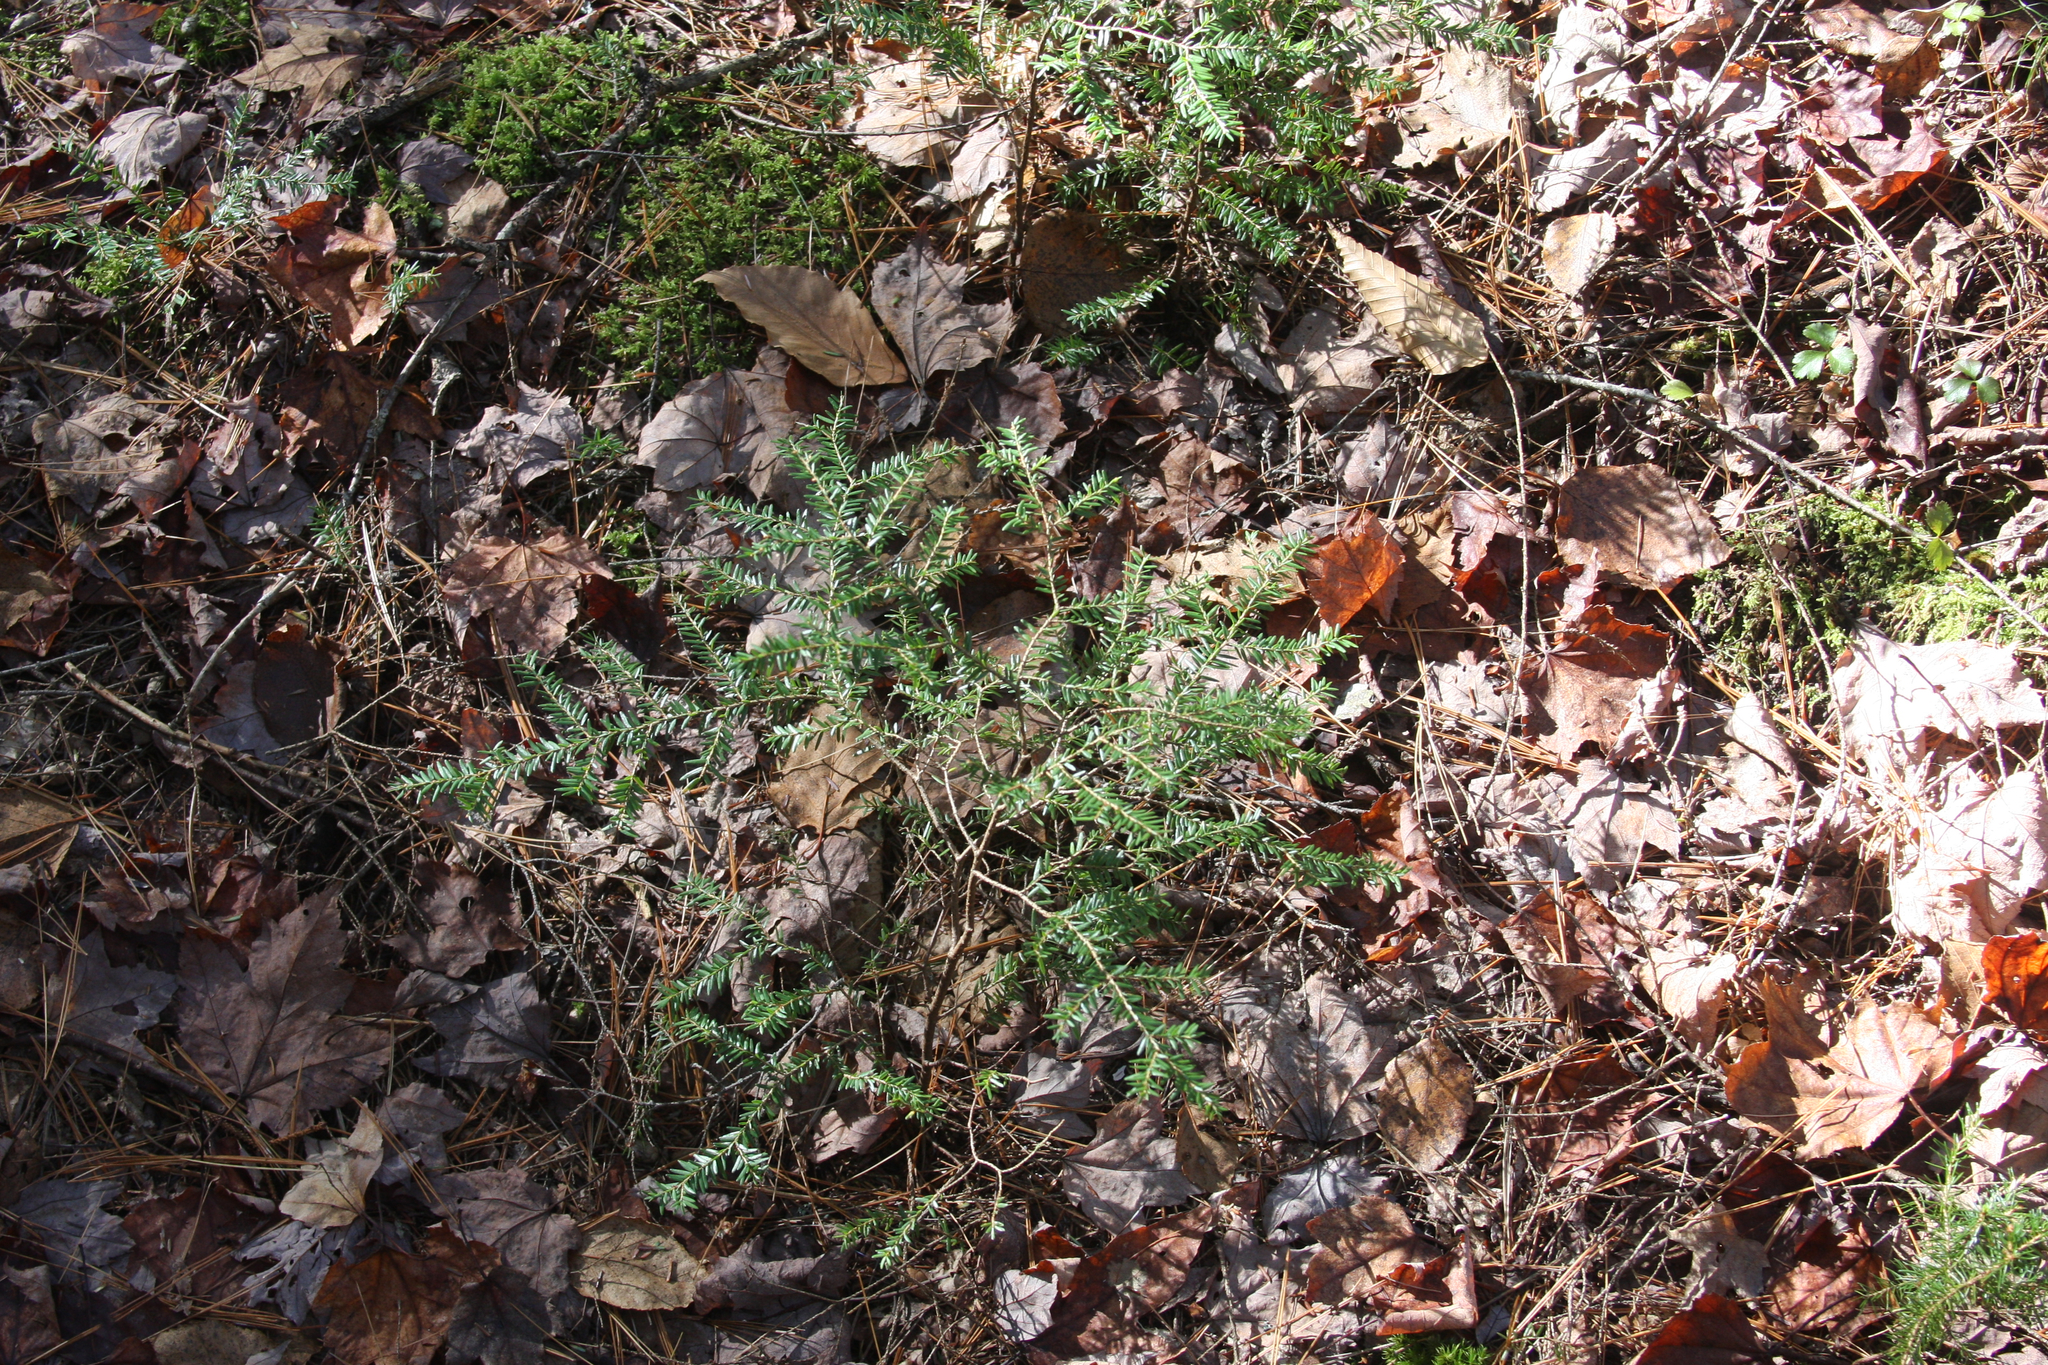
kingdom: Plantae
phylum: Tracheophyta
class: Pinopsida
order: Pinales
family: Pinaceae
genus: Tsuga
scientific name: Tsuga canadensis
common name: Eastern hemlock
